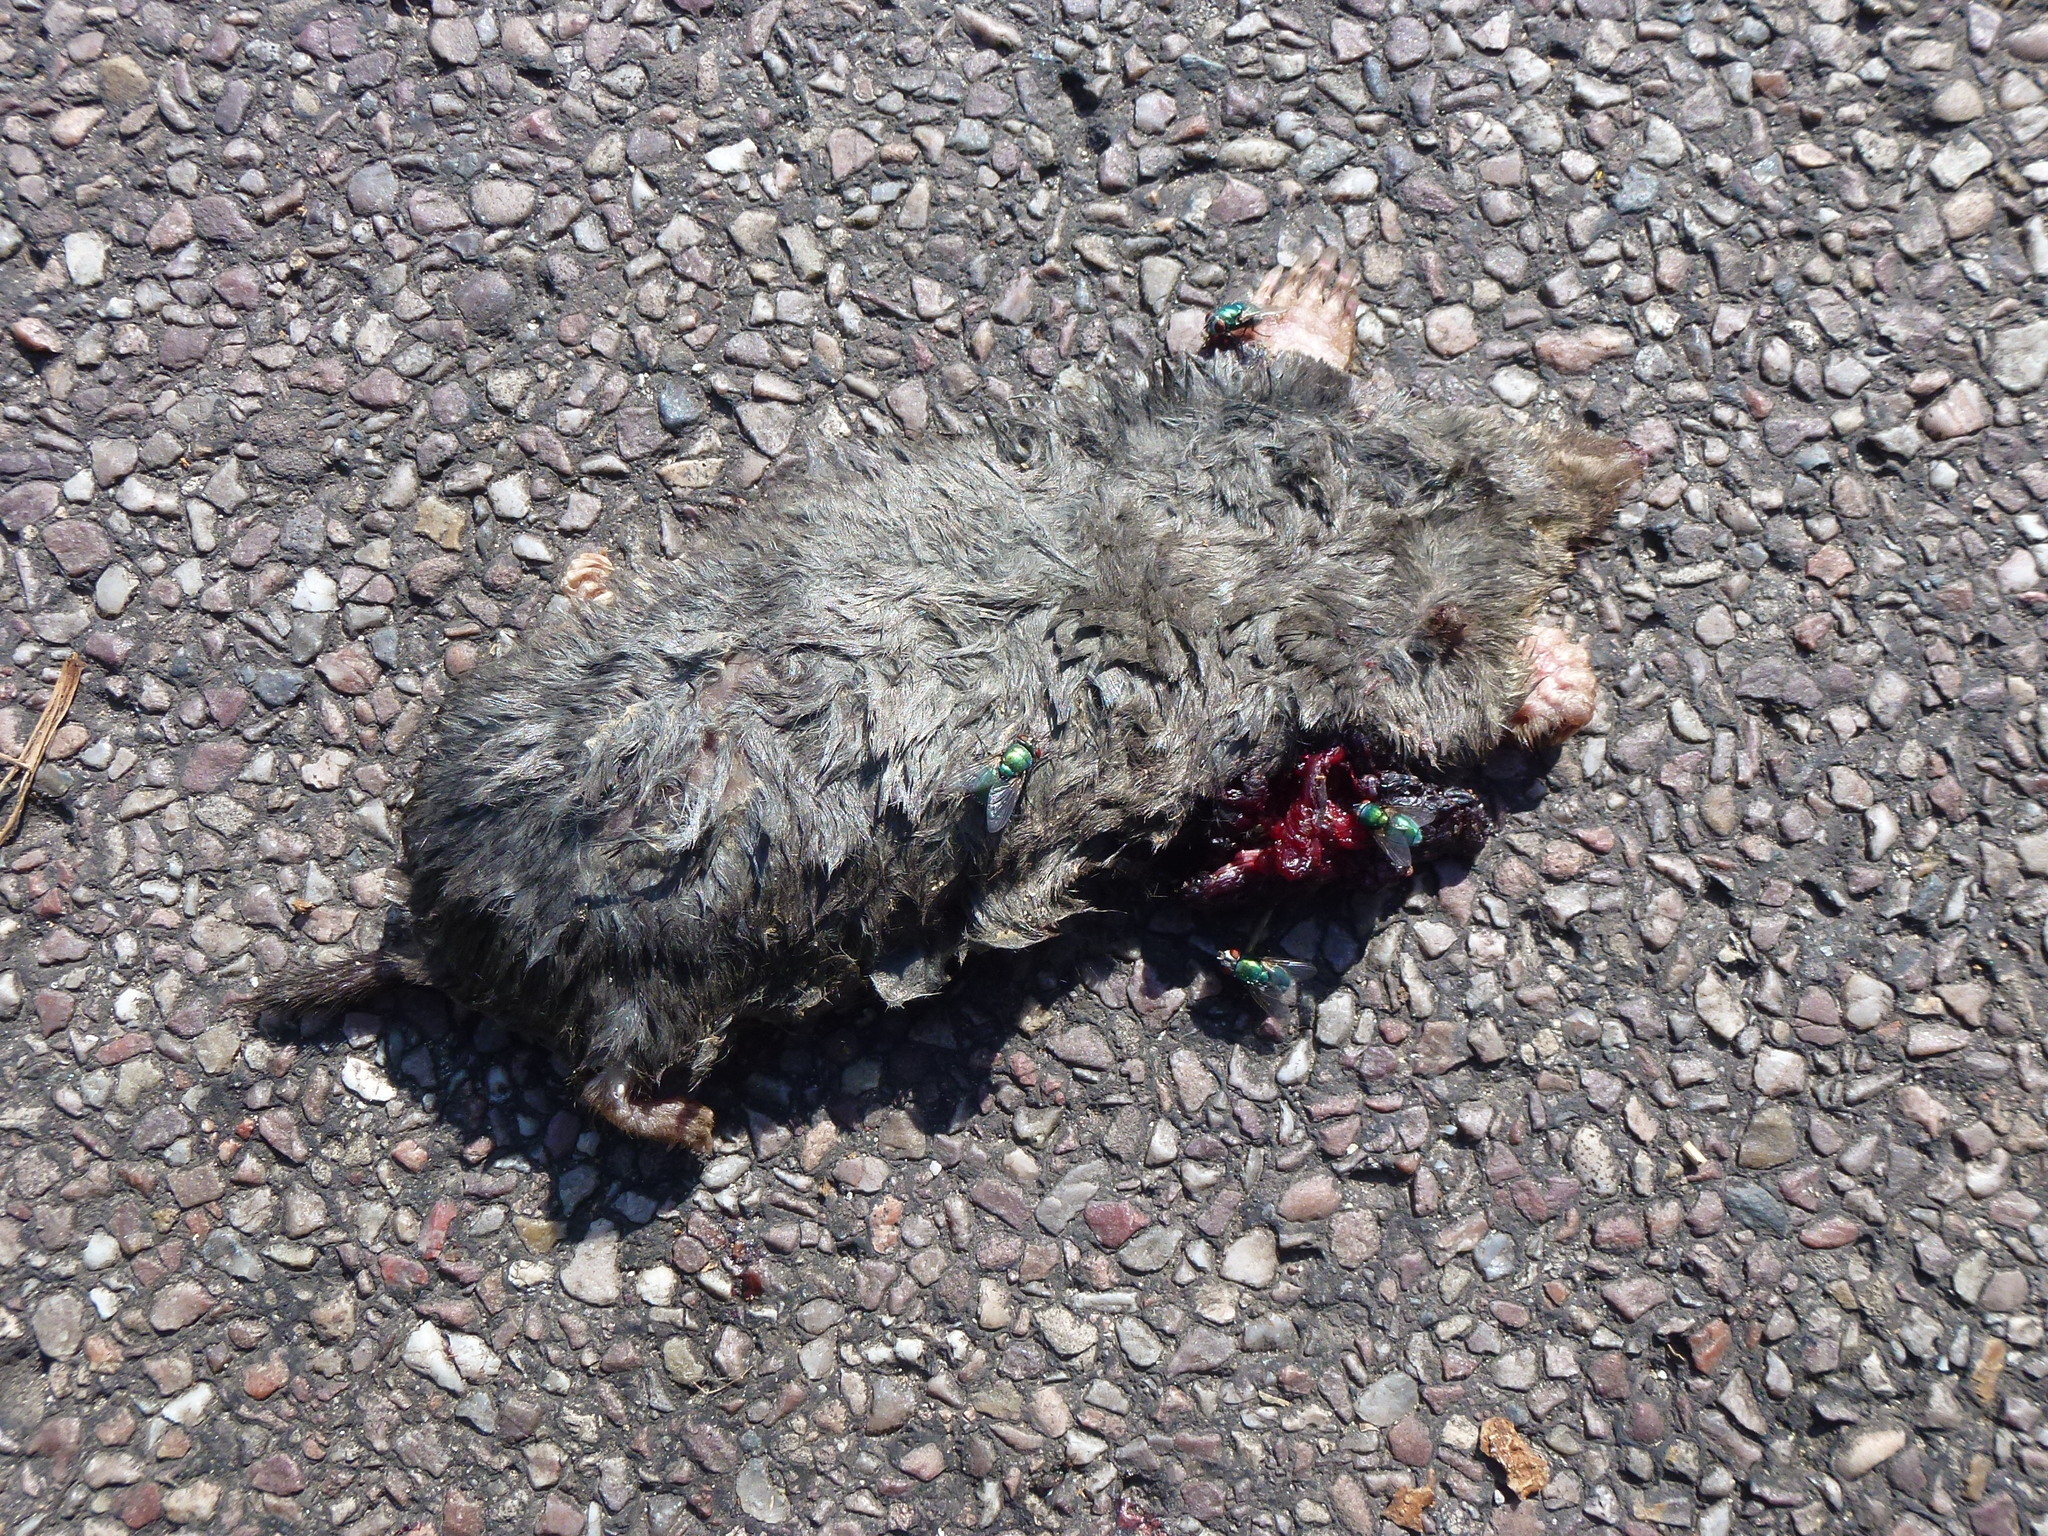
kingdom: Animalia
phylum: Chordata
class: Mammalia
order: Soricomorpha
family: Talpidae
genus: Talpa
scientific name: Talpa europaea
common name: European mole
